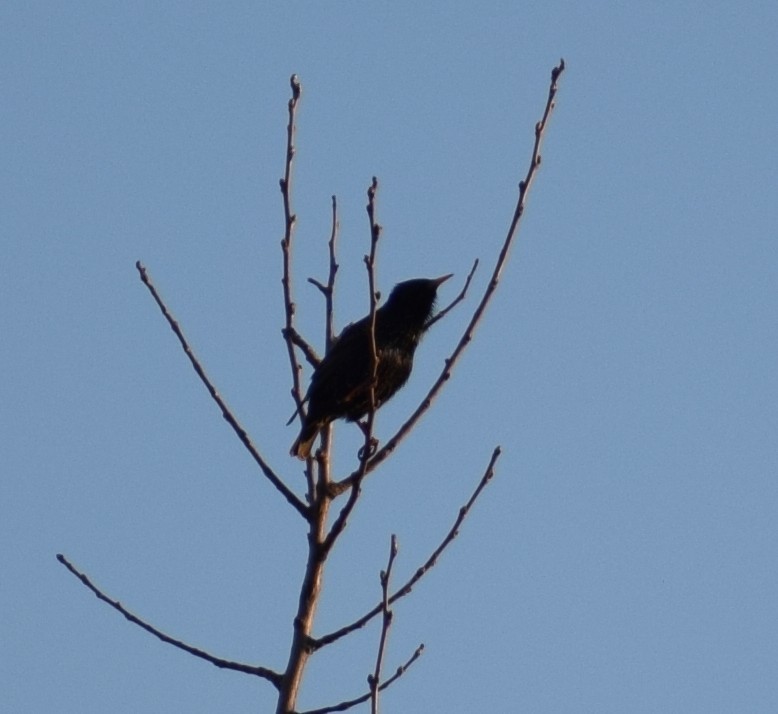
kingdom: Animalia
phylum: Chordata
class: Aves
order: Passeriformes
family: Sturnidae
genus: Sturnus
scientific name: Sturnus vulgaris
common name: Common starling
